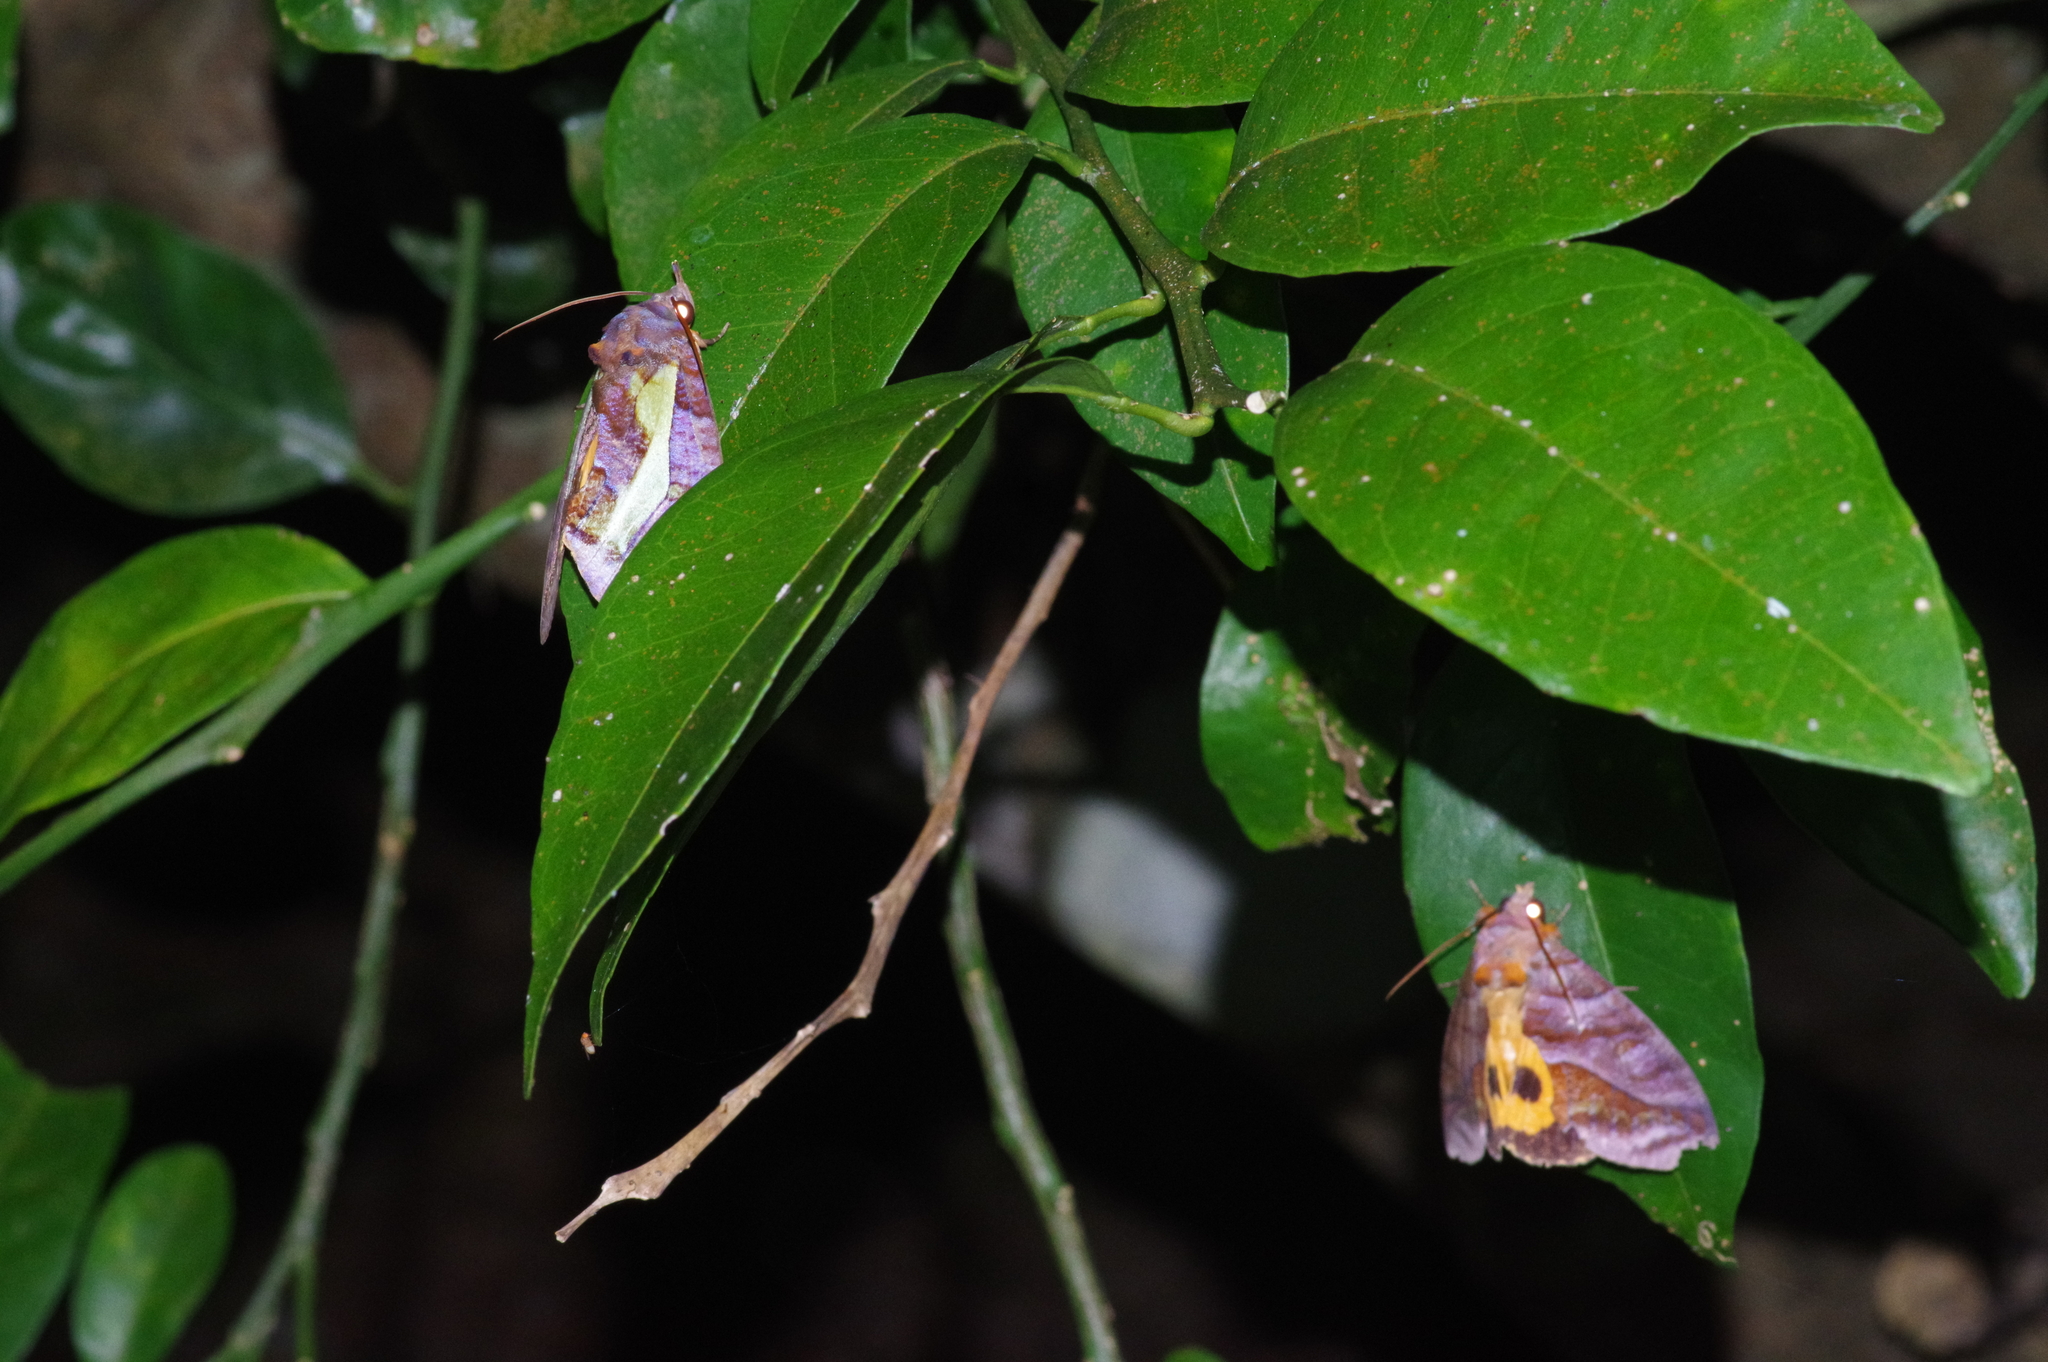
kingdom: Animalia
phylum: Arthropoda
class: Insecta
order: Lepidoptera
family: Erebidae
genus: Eudocima
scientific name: Eudocima homaena
